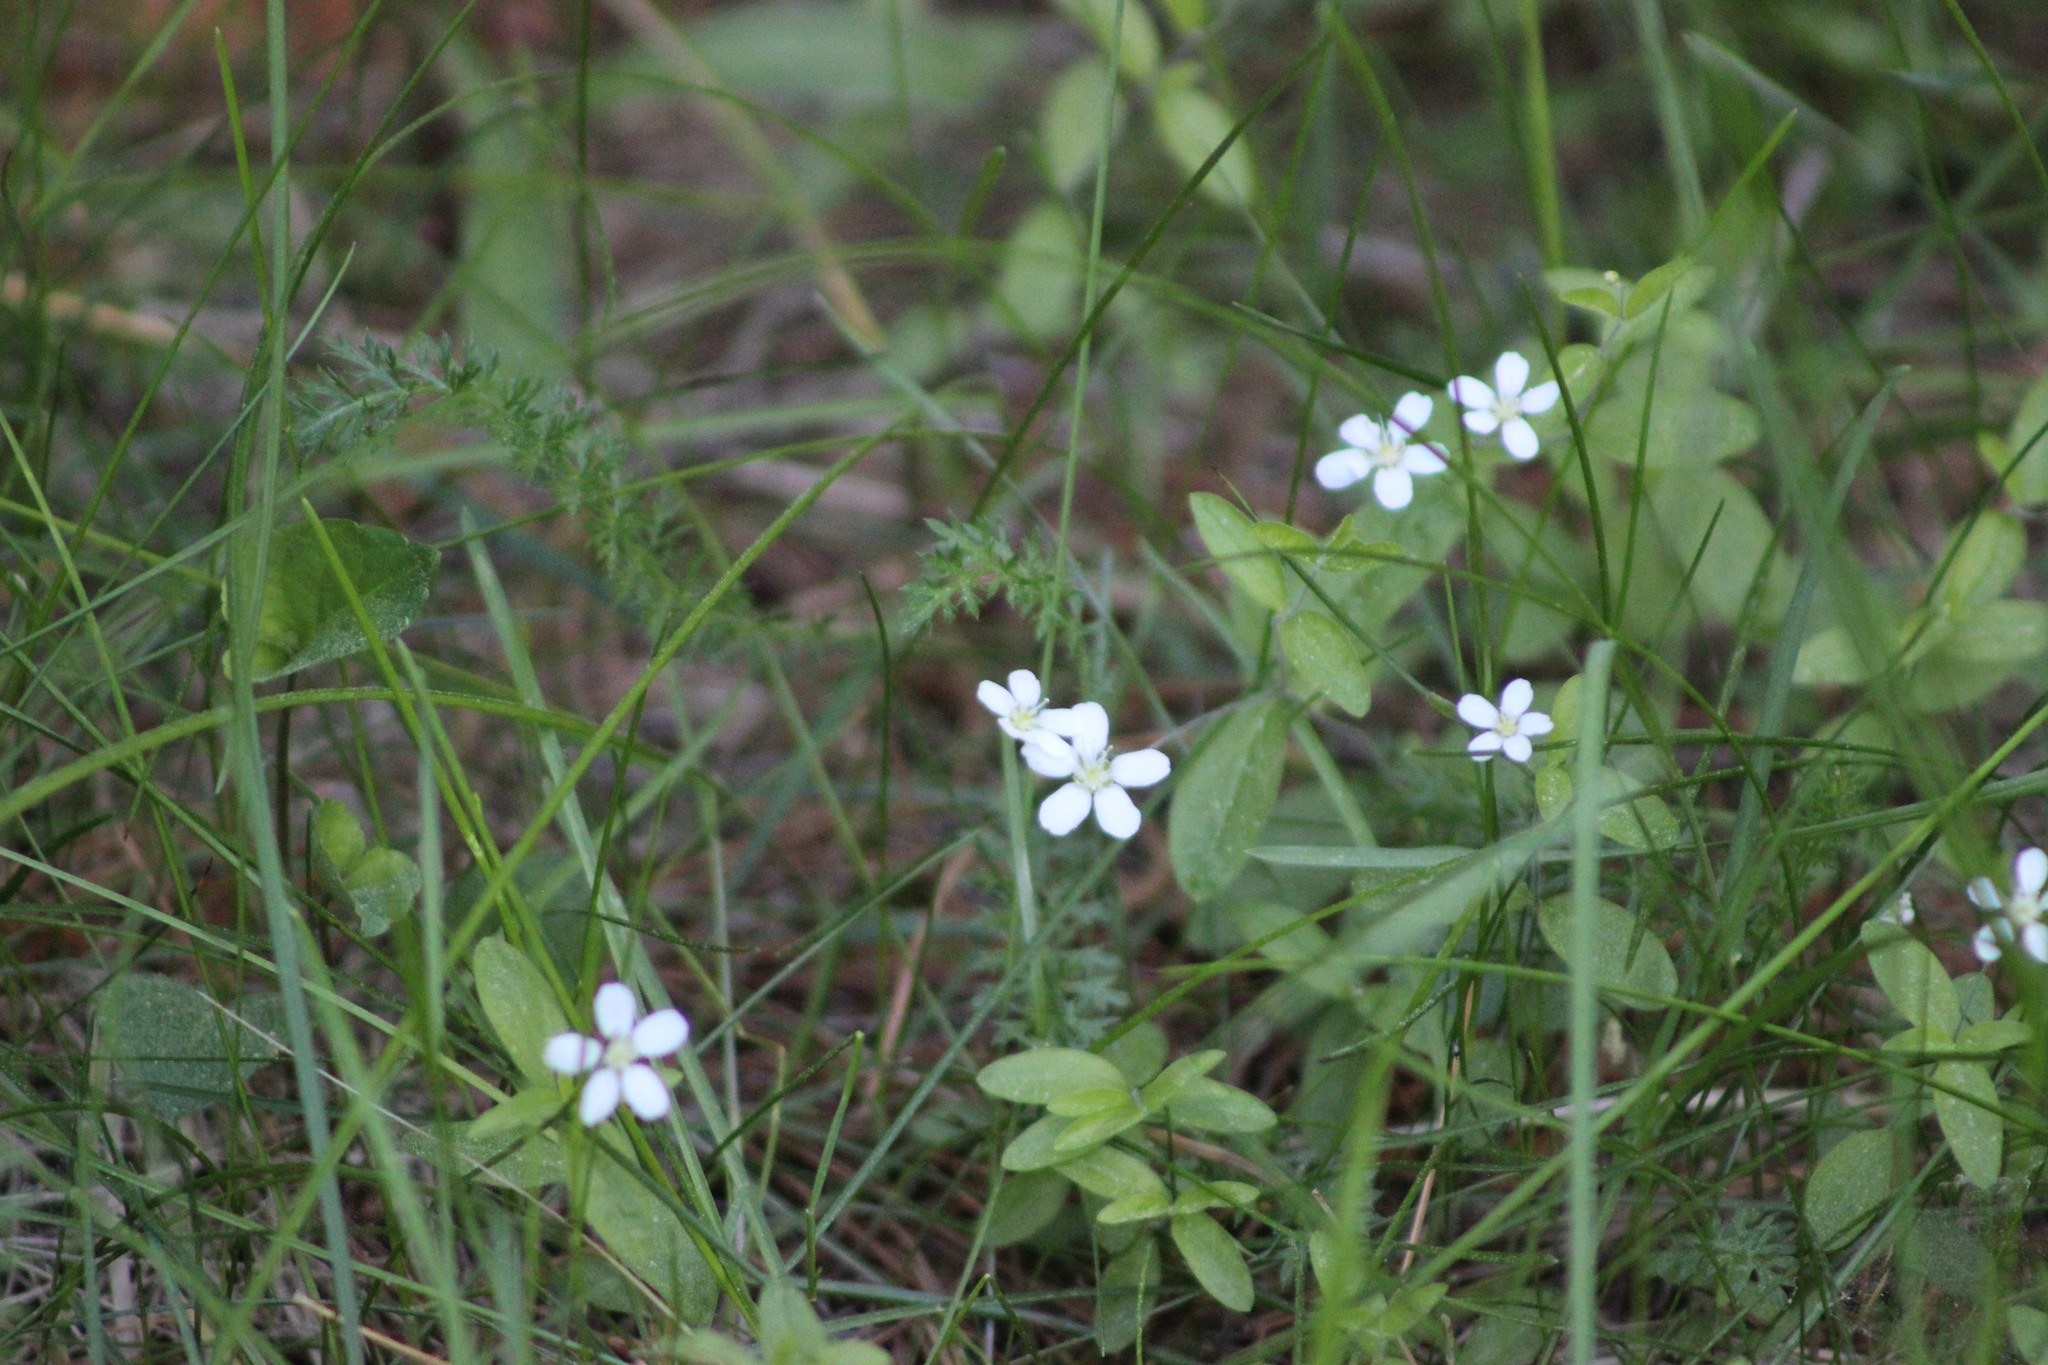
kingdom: Plantae
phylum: Tracheophyta
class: Magnoliopsida
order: Caryophyllales
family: Caryophyllaceae
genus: Moehringia
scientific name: Moehringia lateriflora
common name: Blunt-leaved sandwort
